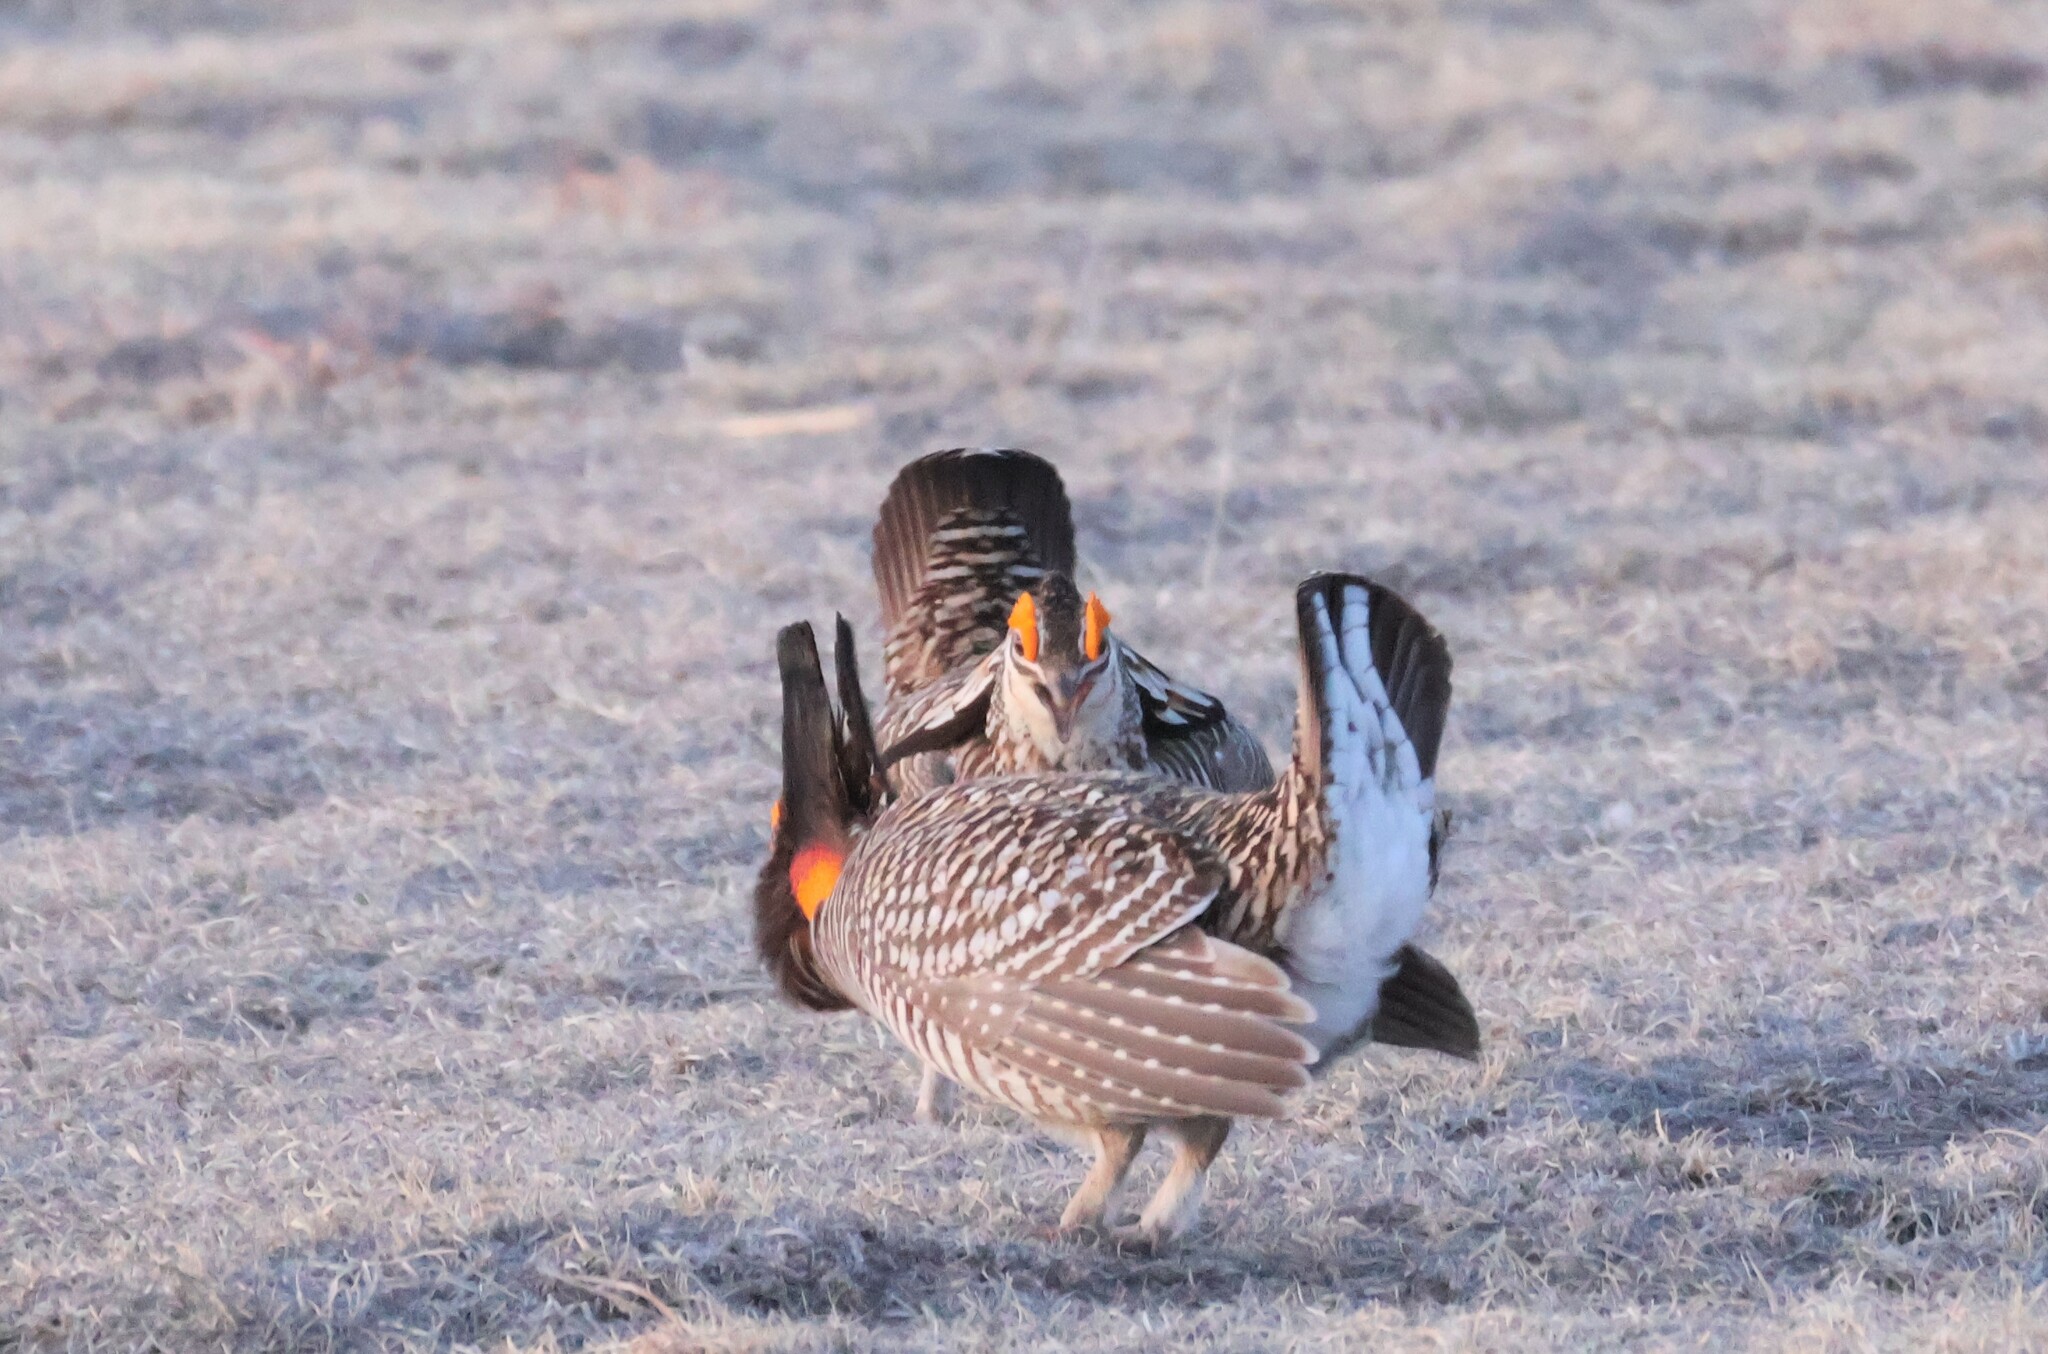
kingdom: Animalia
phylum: Chordata
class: Aves
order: Galliformes
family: Phasianidae
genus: Tympanuchus
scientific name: Tympanuchus cupido
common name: Greater prairie chicken
